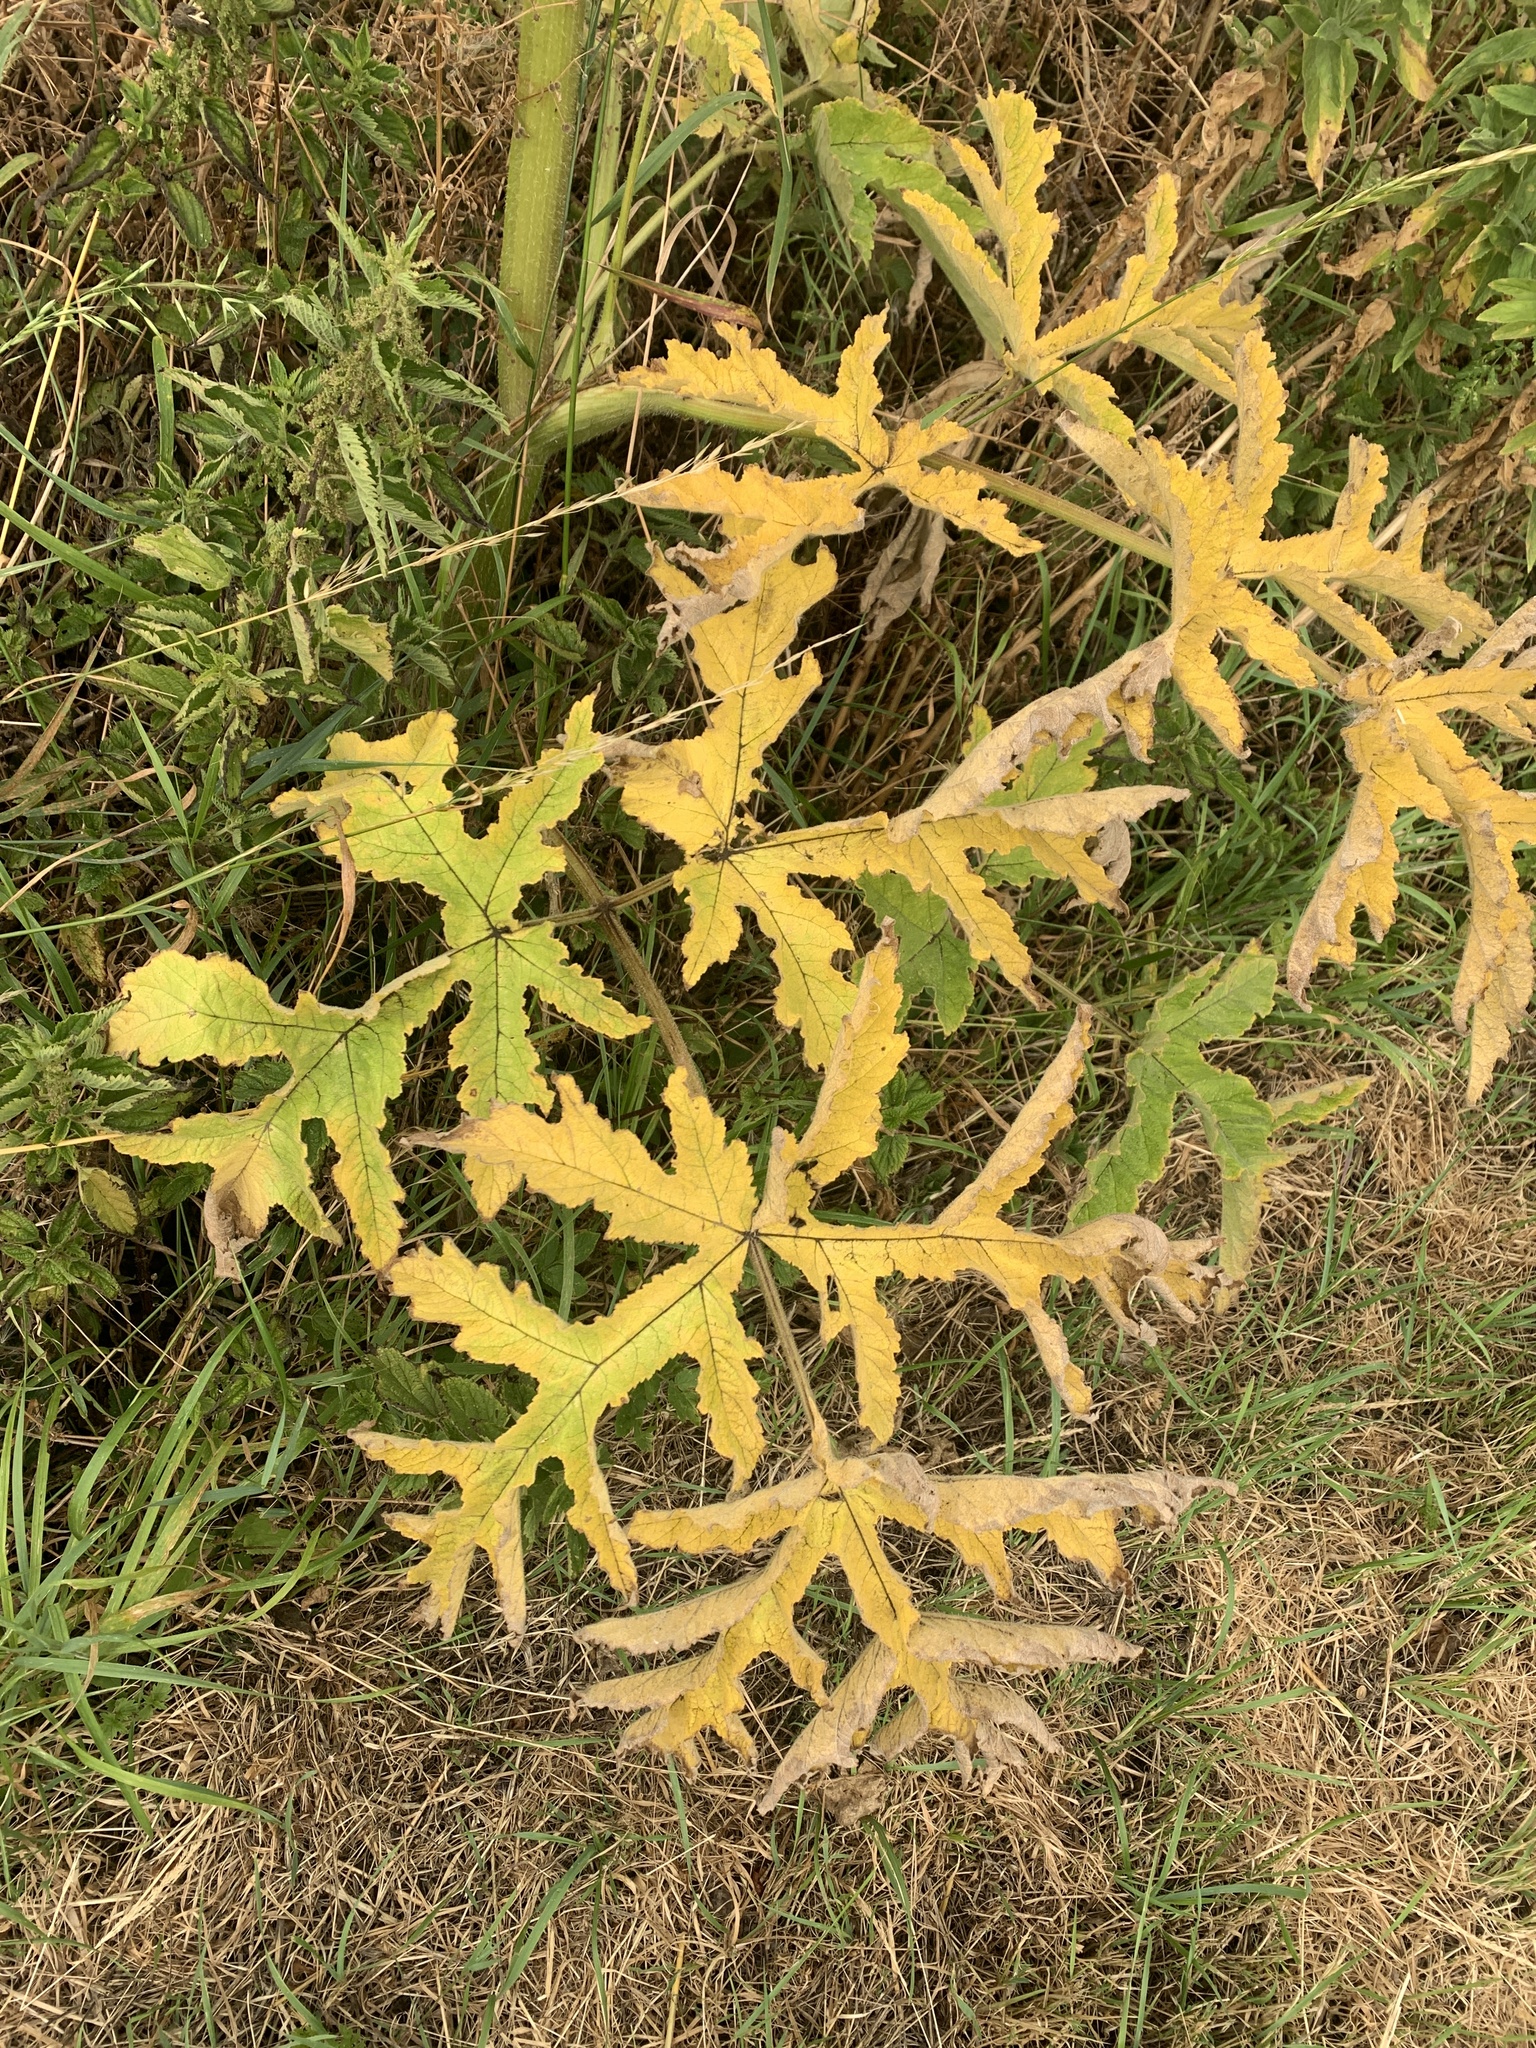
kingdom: Plantae
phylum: Tracheophyta
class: Magnoliopsida
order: Apiales
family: Apiaceae
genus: Heracleum
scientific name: Heracleum sphondylium
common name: Hogweed
